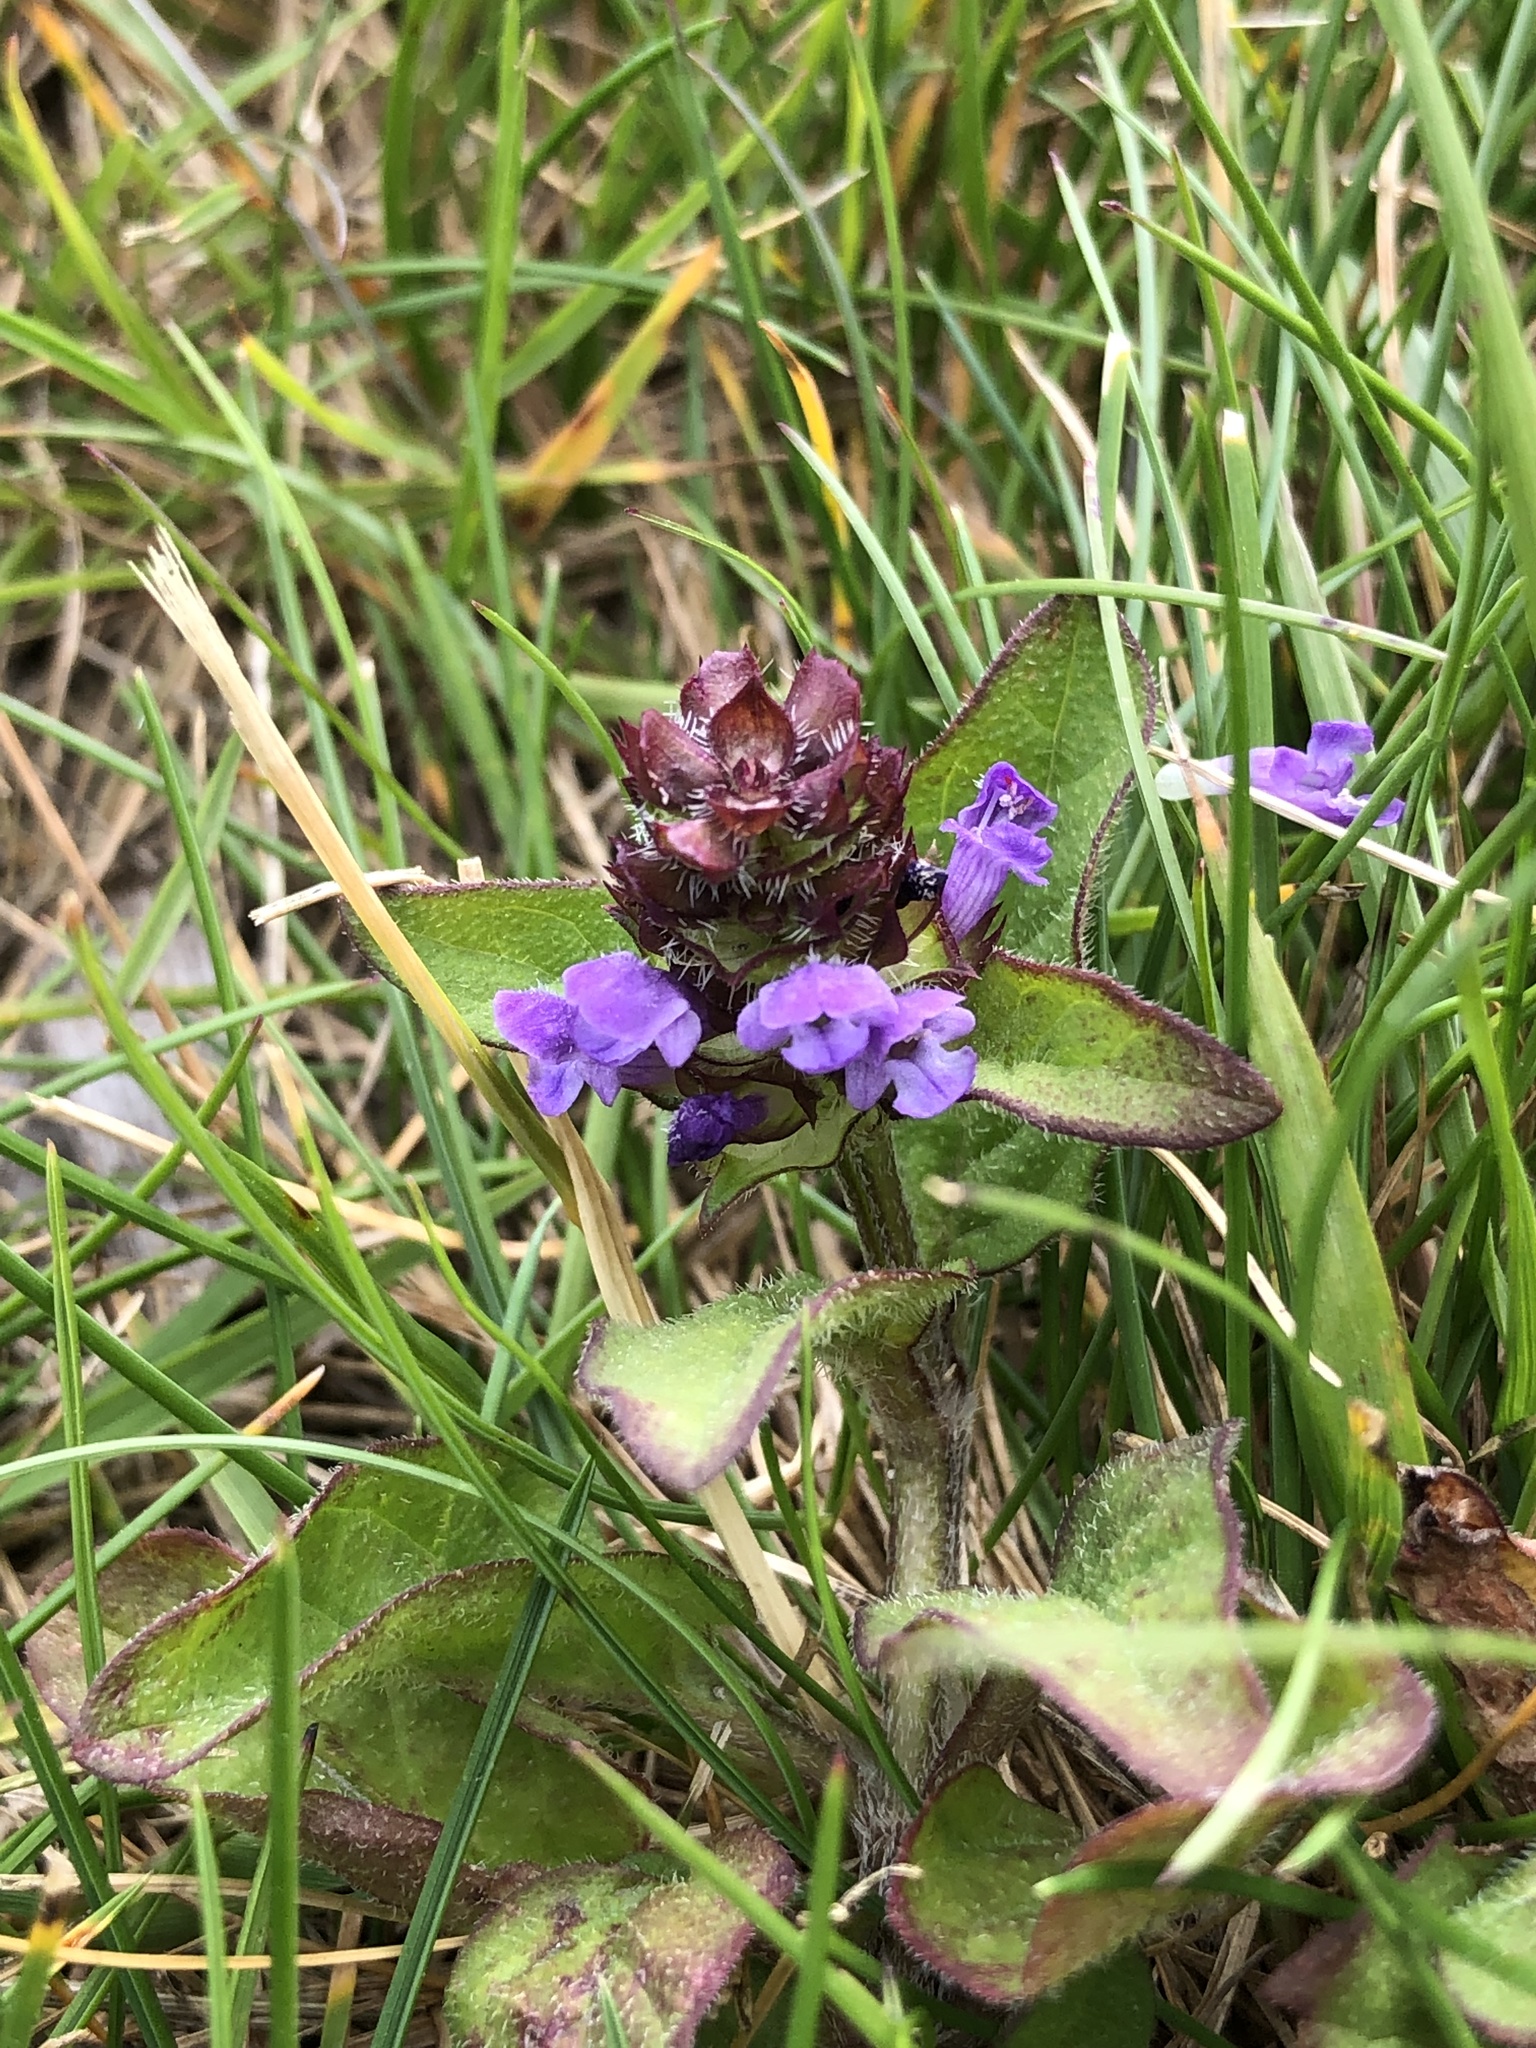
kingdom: Plantae
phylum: Tracheophyta
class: Magnoliopsida
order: Lamiales
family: Lamiaceae
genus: Prunella
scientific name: Prunella vulgaris
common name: Heal-all
